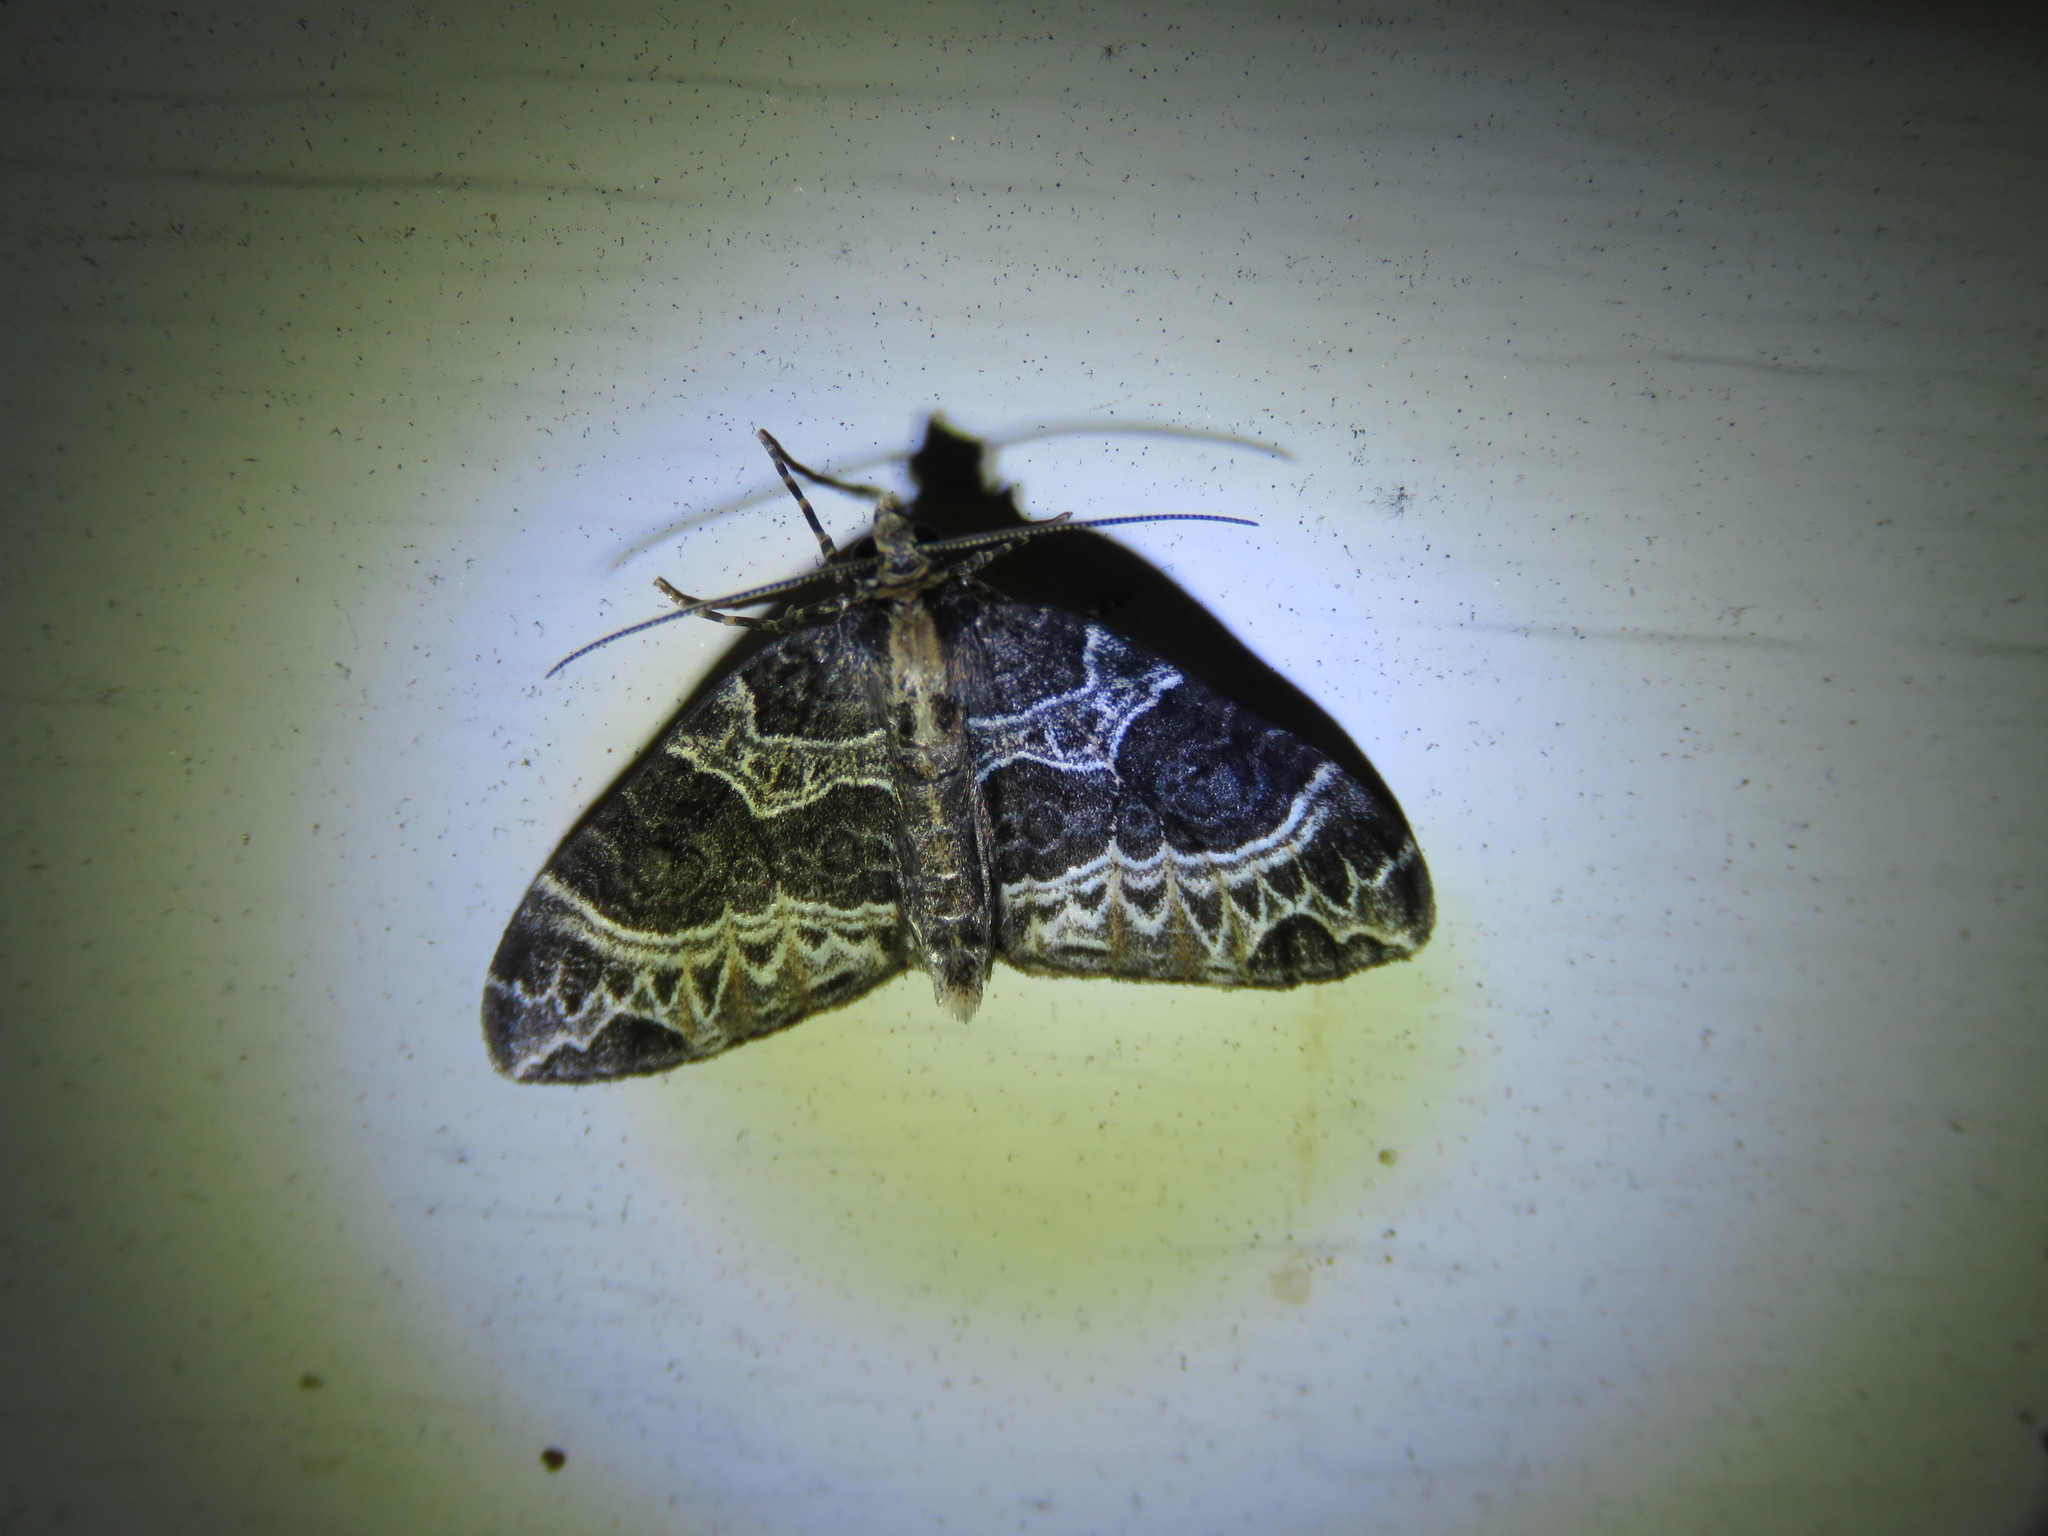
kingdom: Animalia
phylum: Arthropoda
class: Insecta
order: Lepidoptera
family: Geometridae
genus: Ecliptopera
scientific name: Ecliptopera silaceata
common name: Small phoenix
